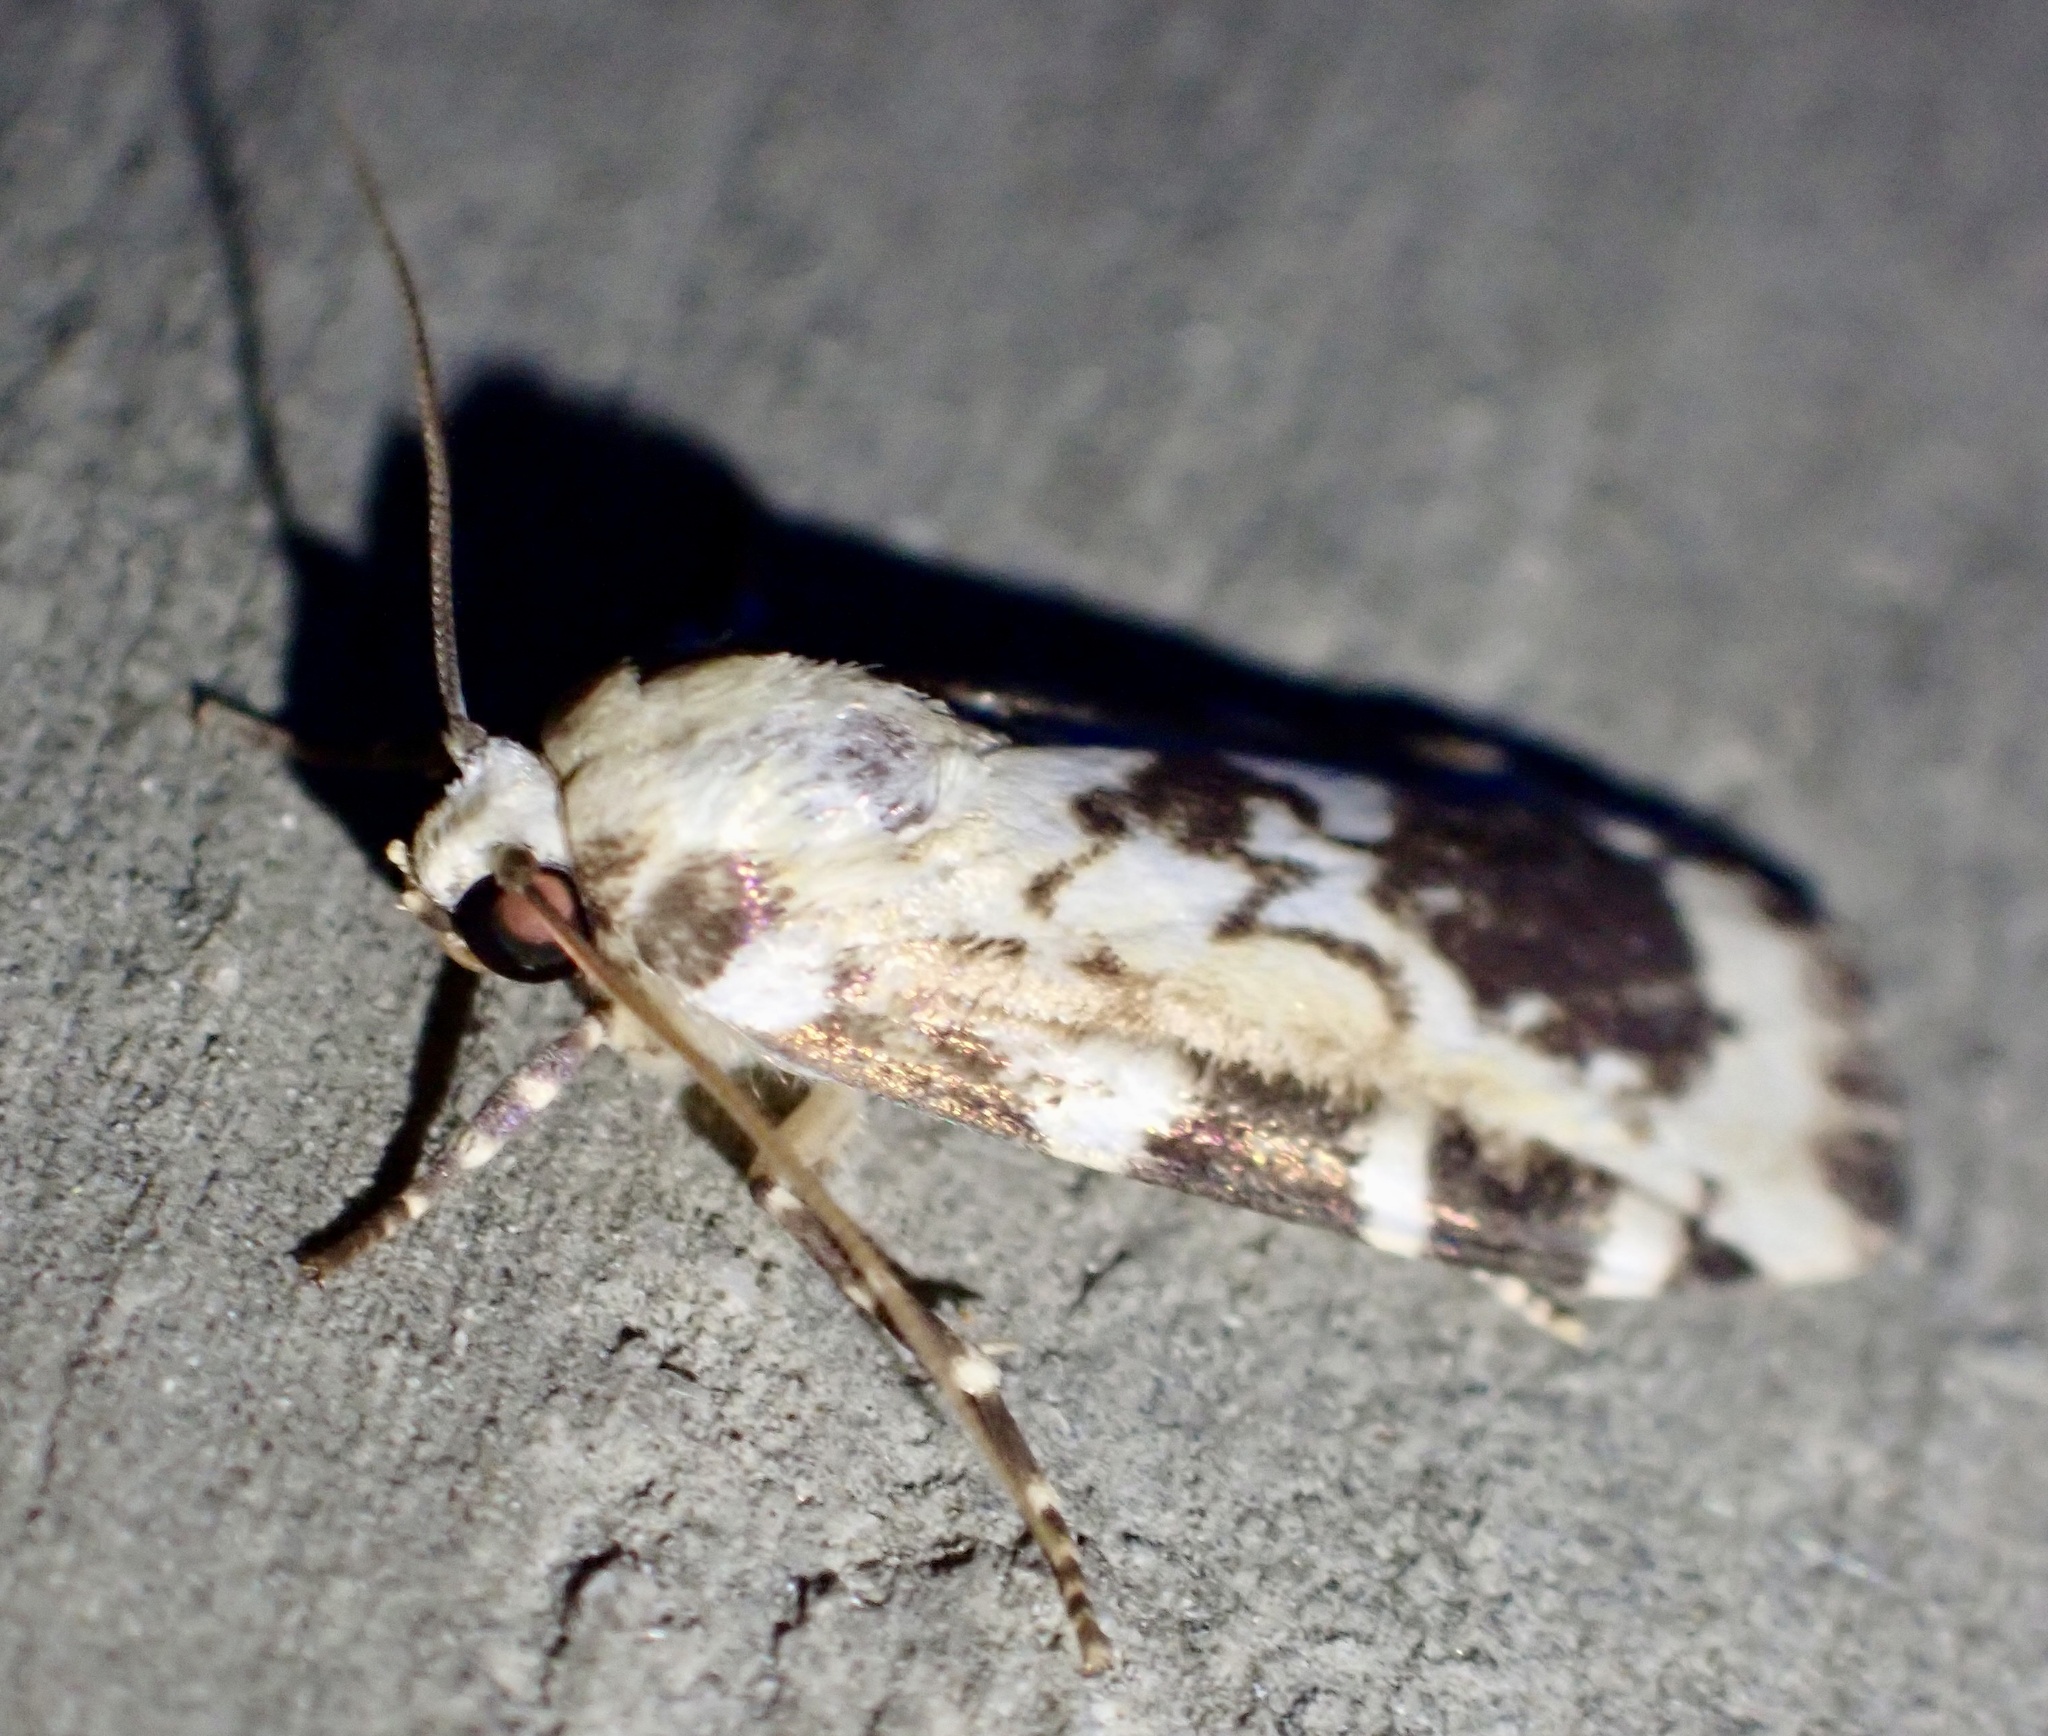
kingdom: Animalia
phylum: Arthropoda
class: Insecta
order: Lepidoptera
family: Erebidae
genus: Cyana
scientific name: Cyana nigroplagata
